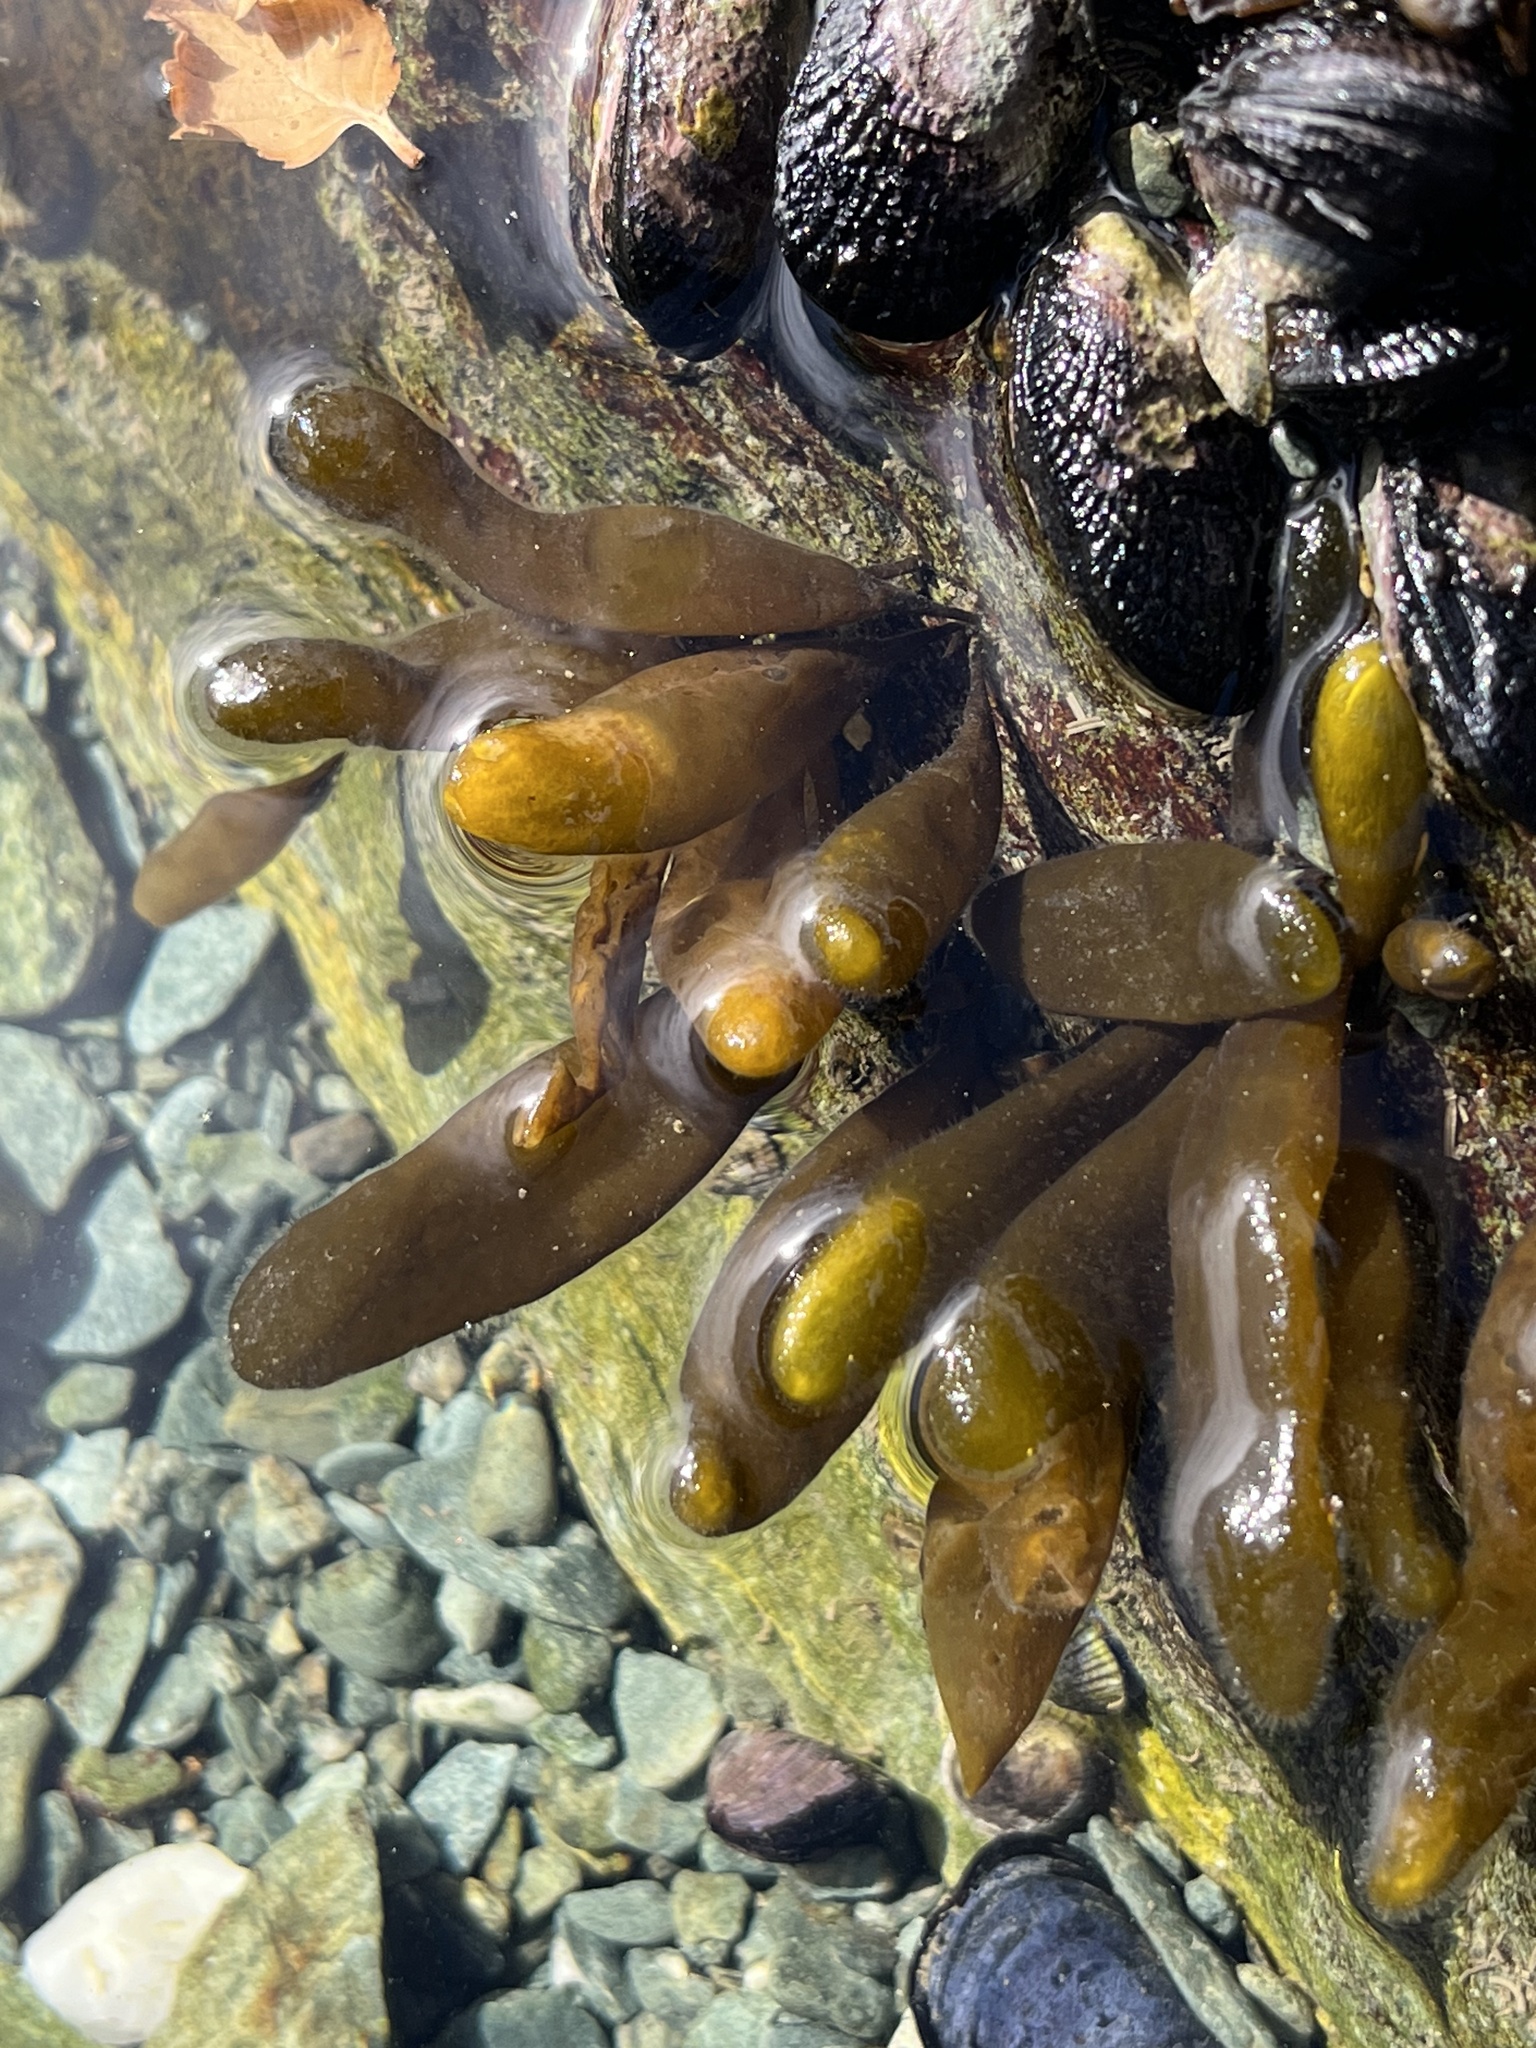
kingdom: Chromista
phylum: Ochrophyta
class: Phaeophyceae
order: Ectocarpales
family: Adenocystaceae
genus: Adenocystis
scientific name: Adenocystis utricularis
